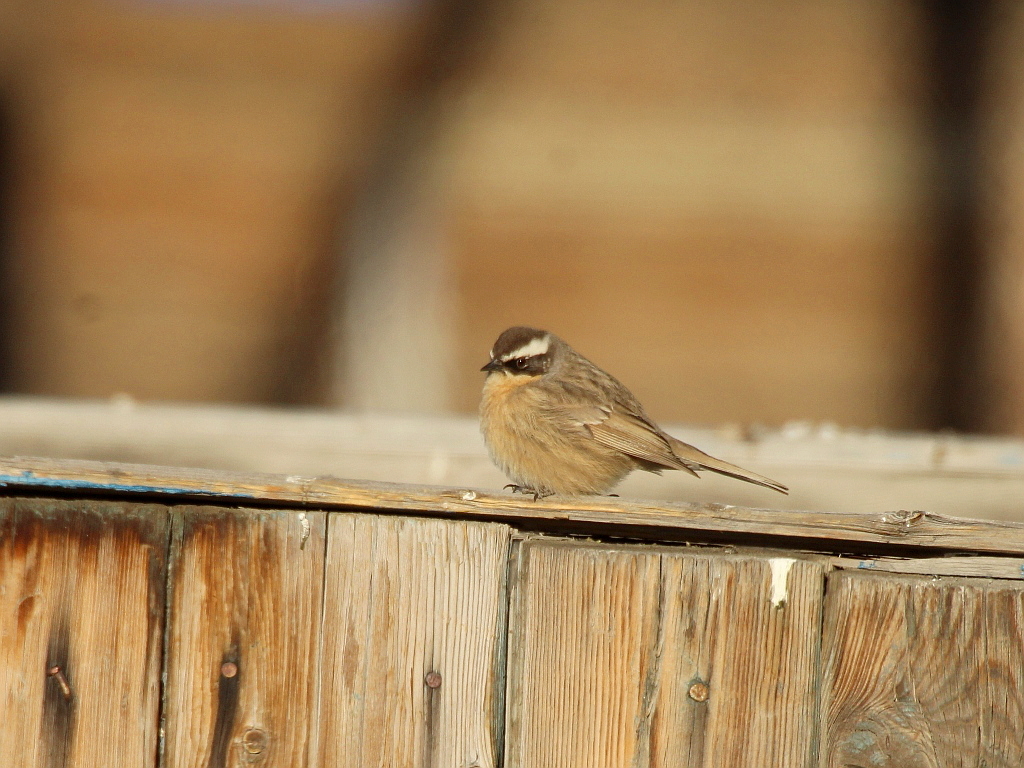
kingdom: Animalia
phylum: Chordata
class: Aves
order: Passeriformes
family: Prunellidae
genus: Prunella
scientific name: Prunella fulvescens
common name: Brown accentor
